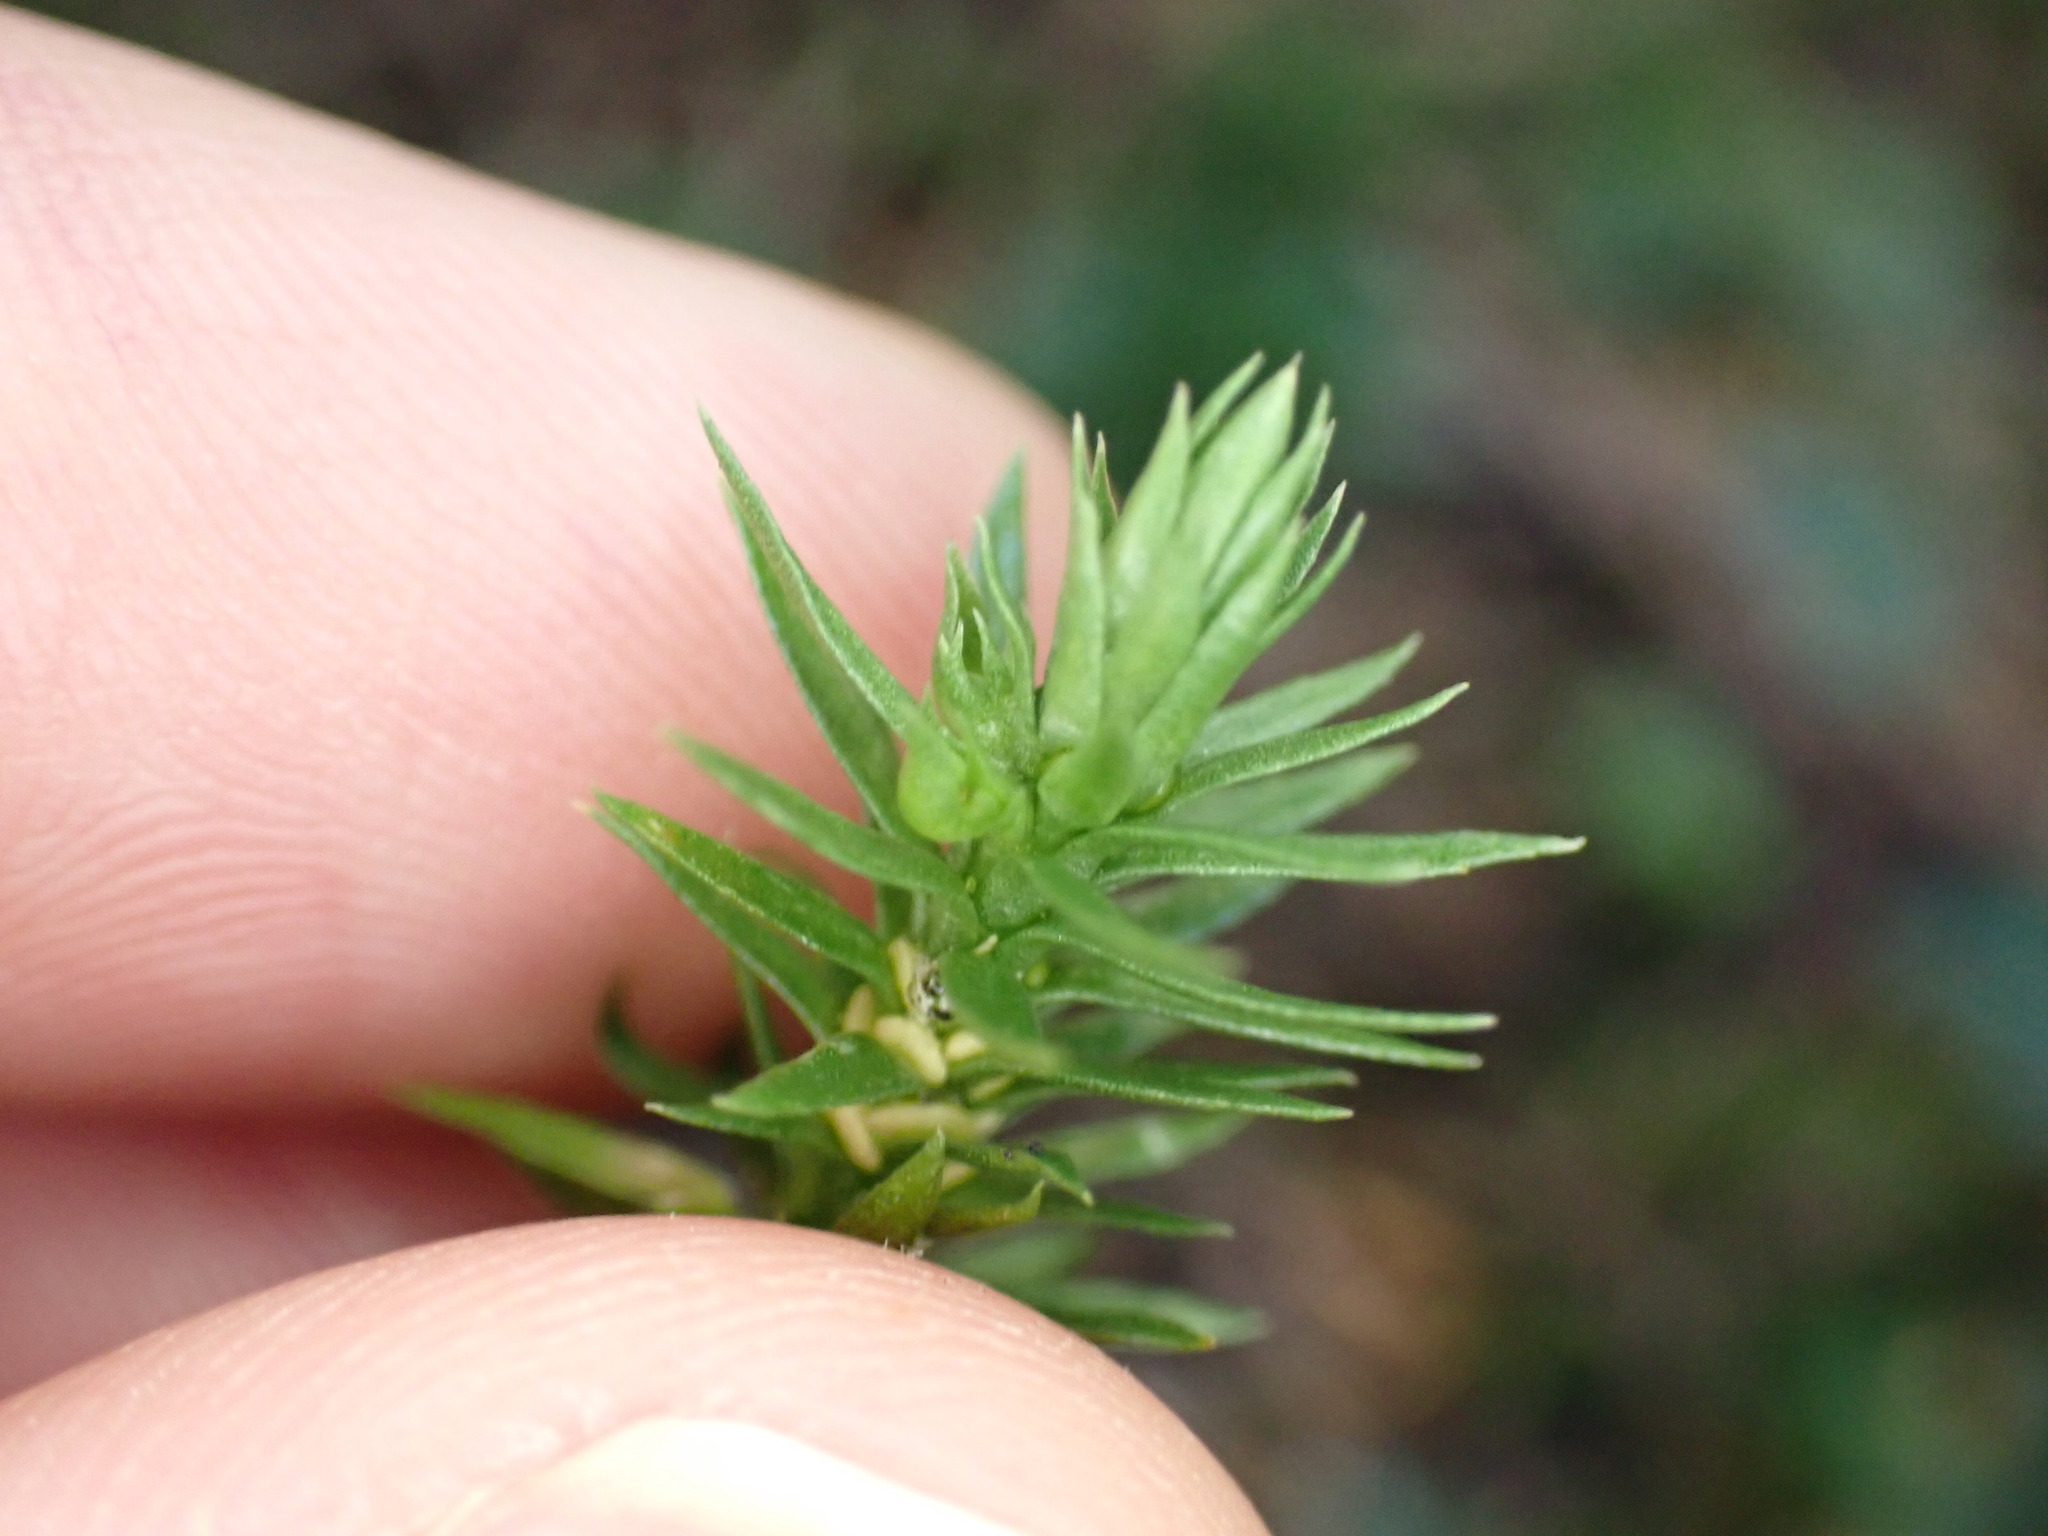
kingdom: Plantae
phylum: Tracheophyta
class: Lycopodiopsida
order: Lycopodiales
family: Lycopodiaceae
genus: Huperzia
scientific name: Huperzia occidentalis
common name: Western clubmoss
